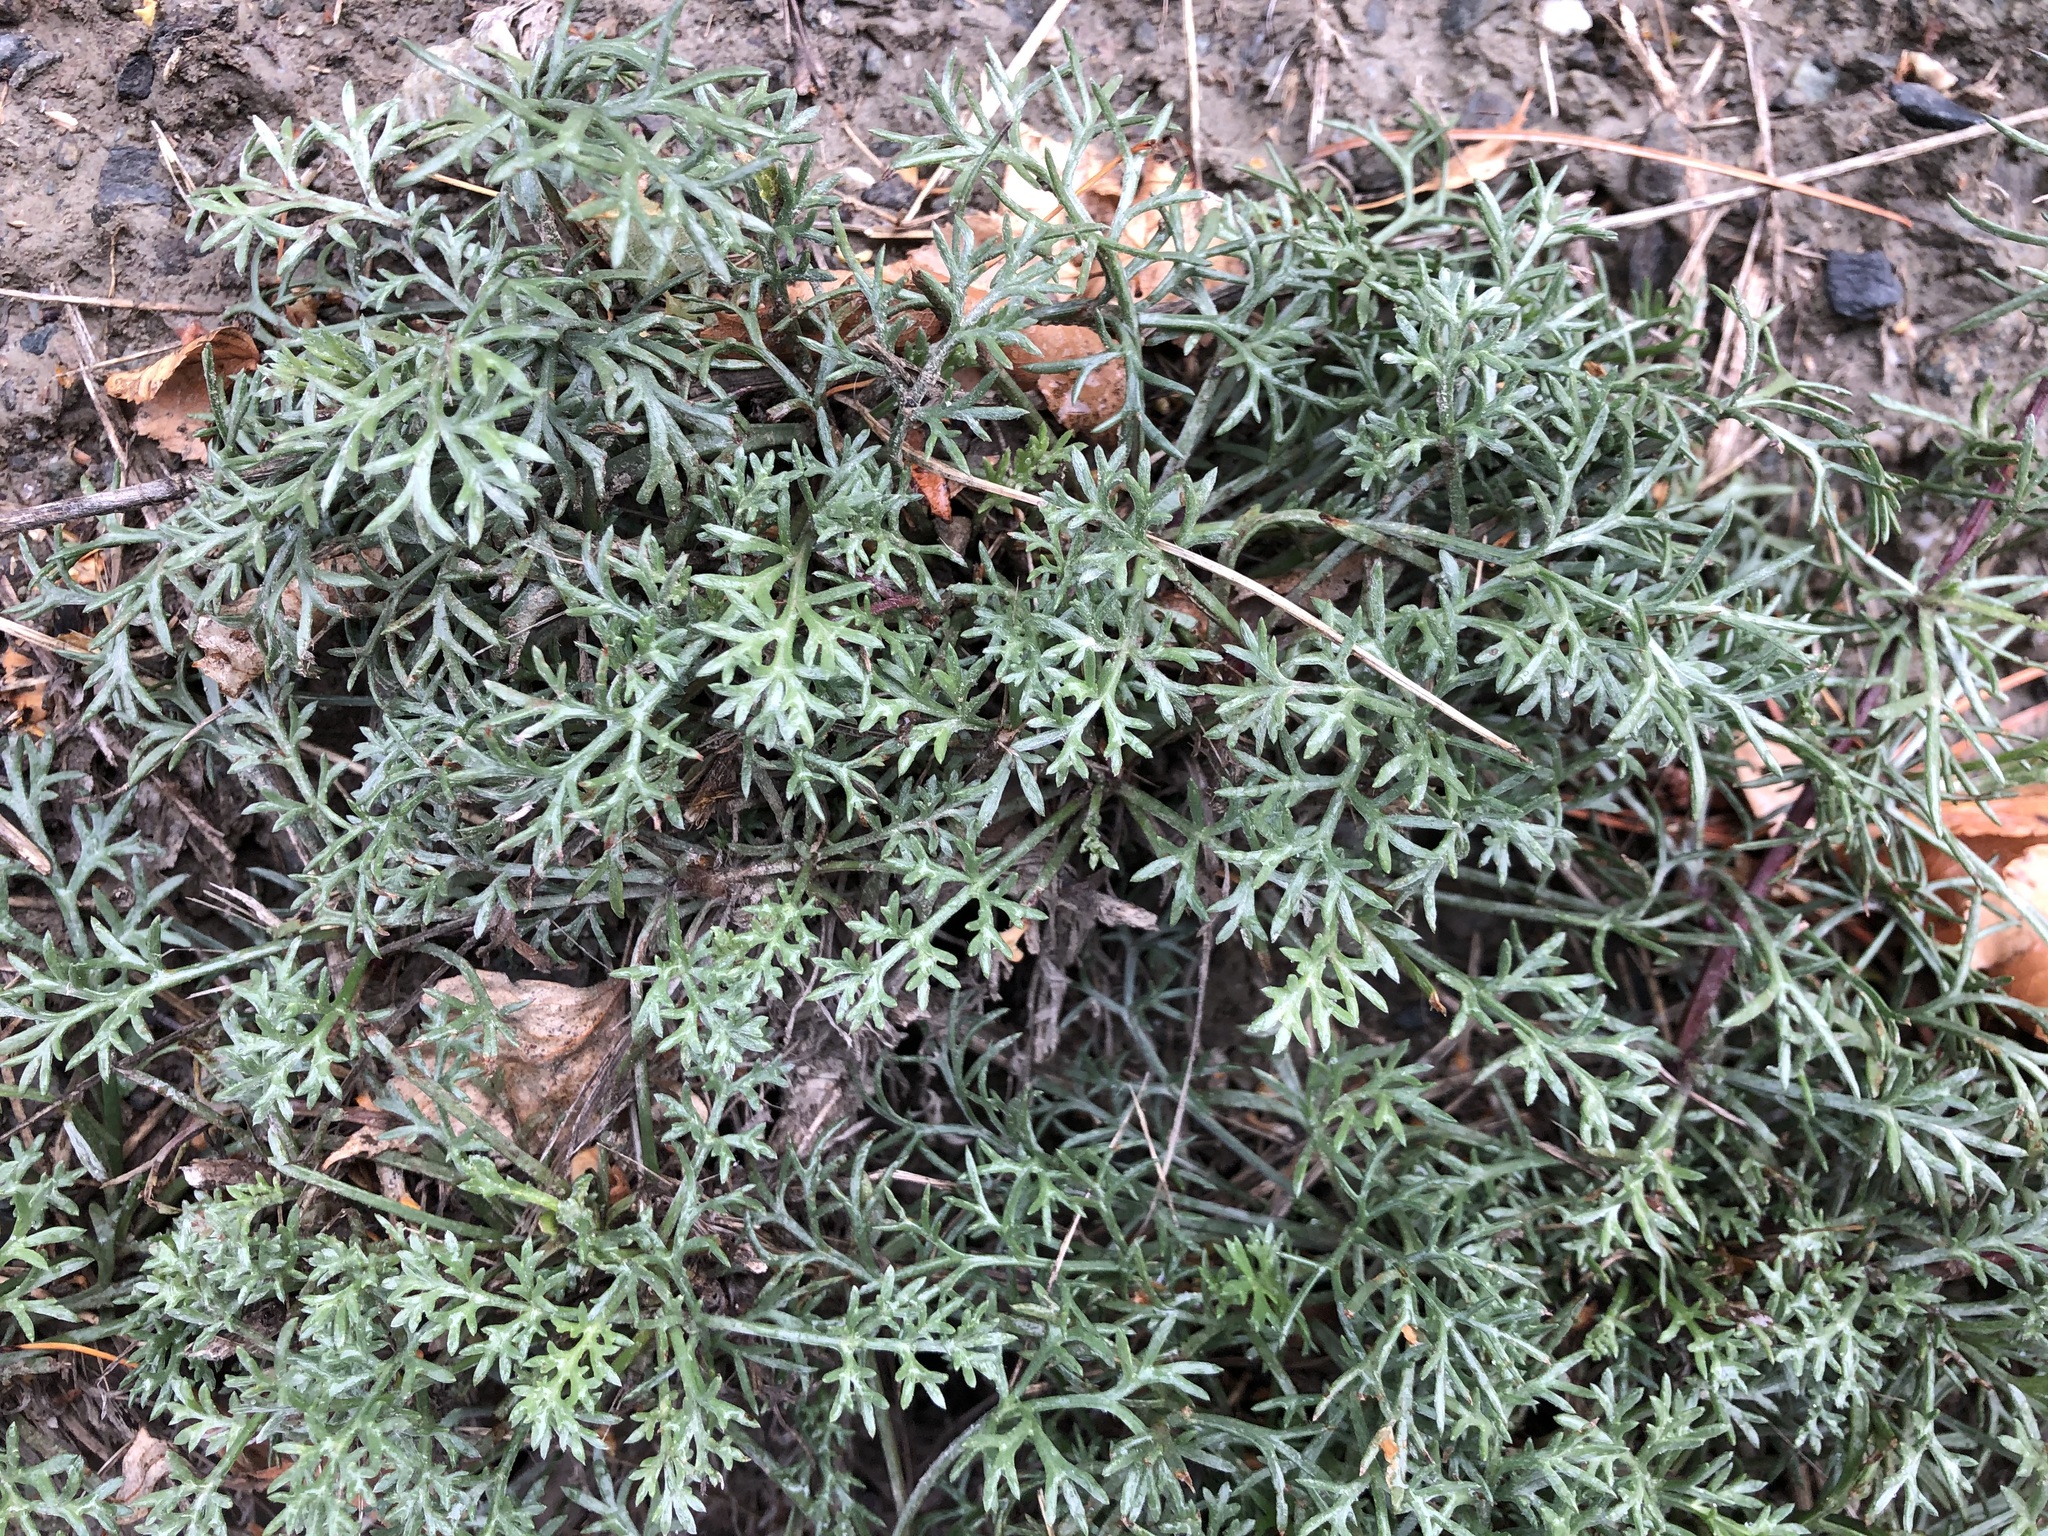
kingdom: Plantae
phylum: Tracheophyta
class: Magnoliopsida
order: Asterales
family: Asteraceae
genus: Artemisia
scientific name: Artemisia campestris
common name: Field wormwood
